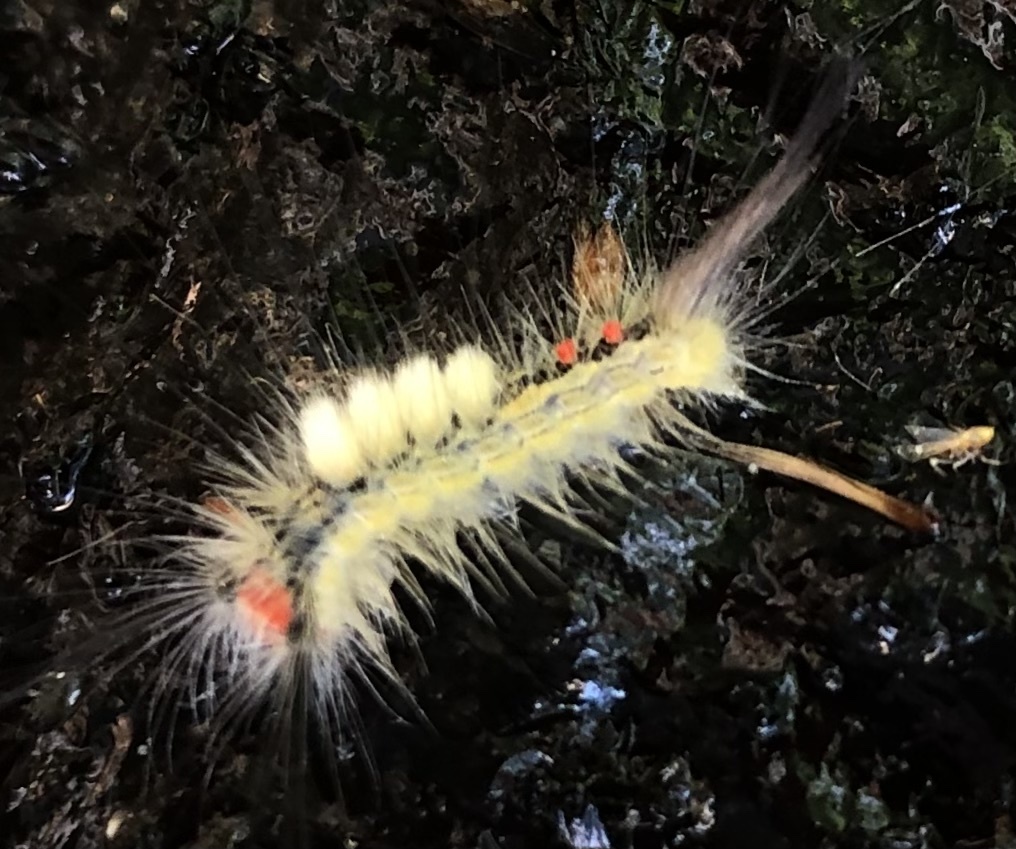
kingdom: Animalia
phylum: Arthropoda
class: Insecta
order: Lepidoptera
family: Erebidae
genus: Orgyia
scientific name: Orgyia leucostigma
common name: White-marked tussock moth
